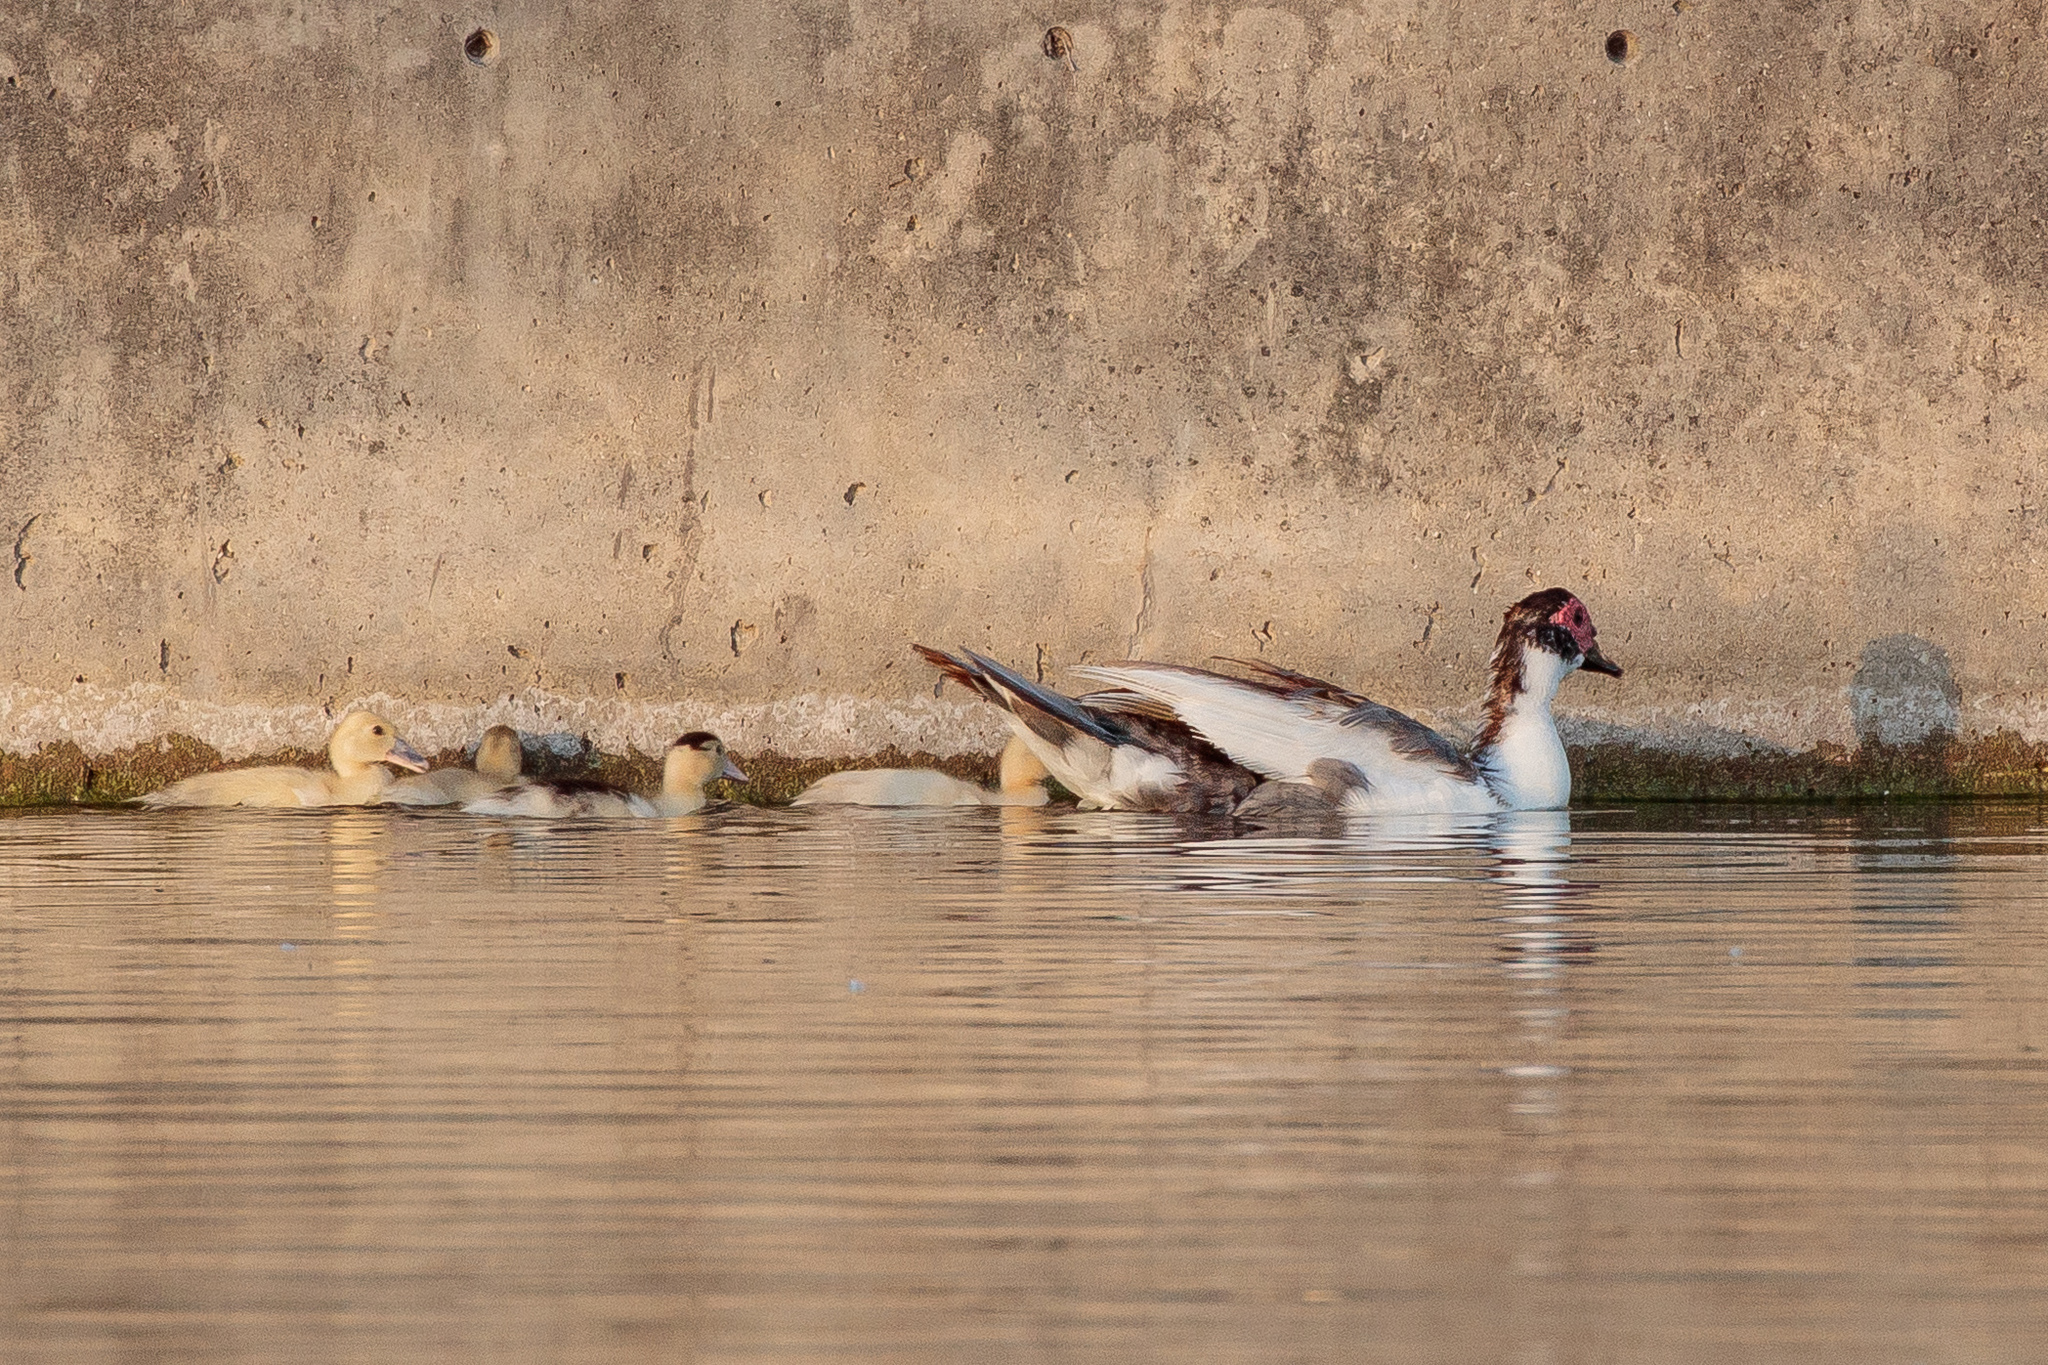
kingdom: Animalia
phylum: Chordata
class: Aves
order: Anseriformes
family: Anatidae
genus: Cairina
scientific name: Cairina moschata
